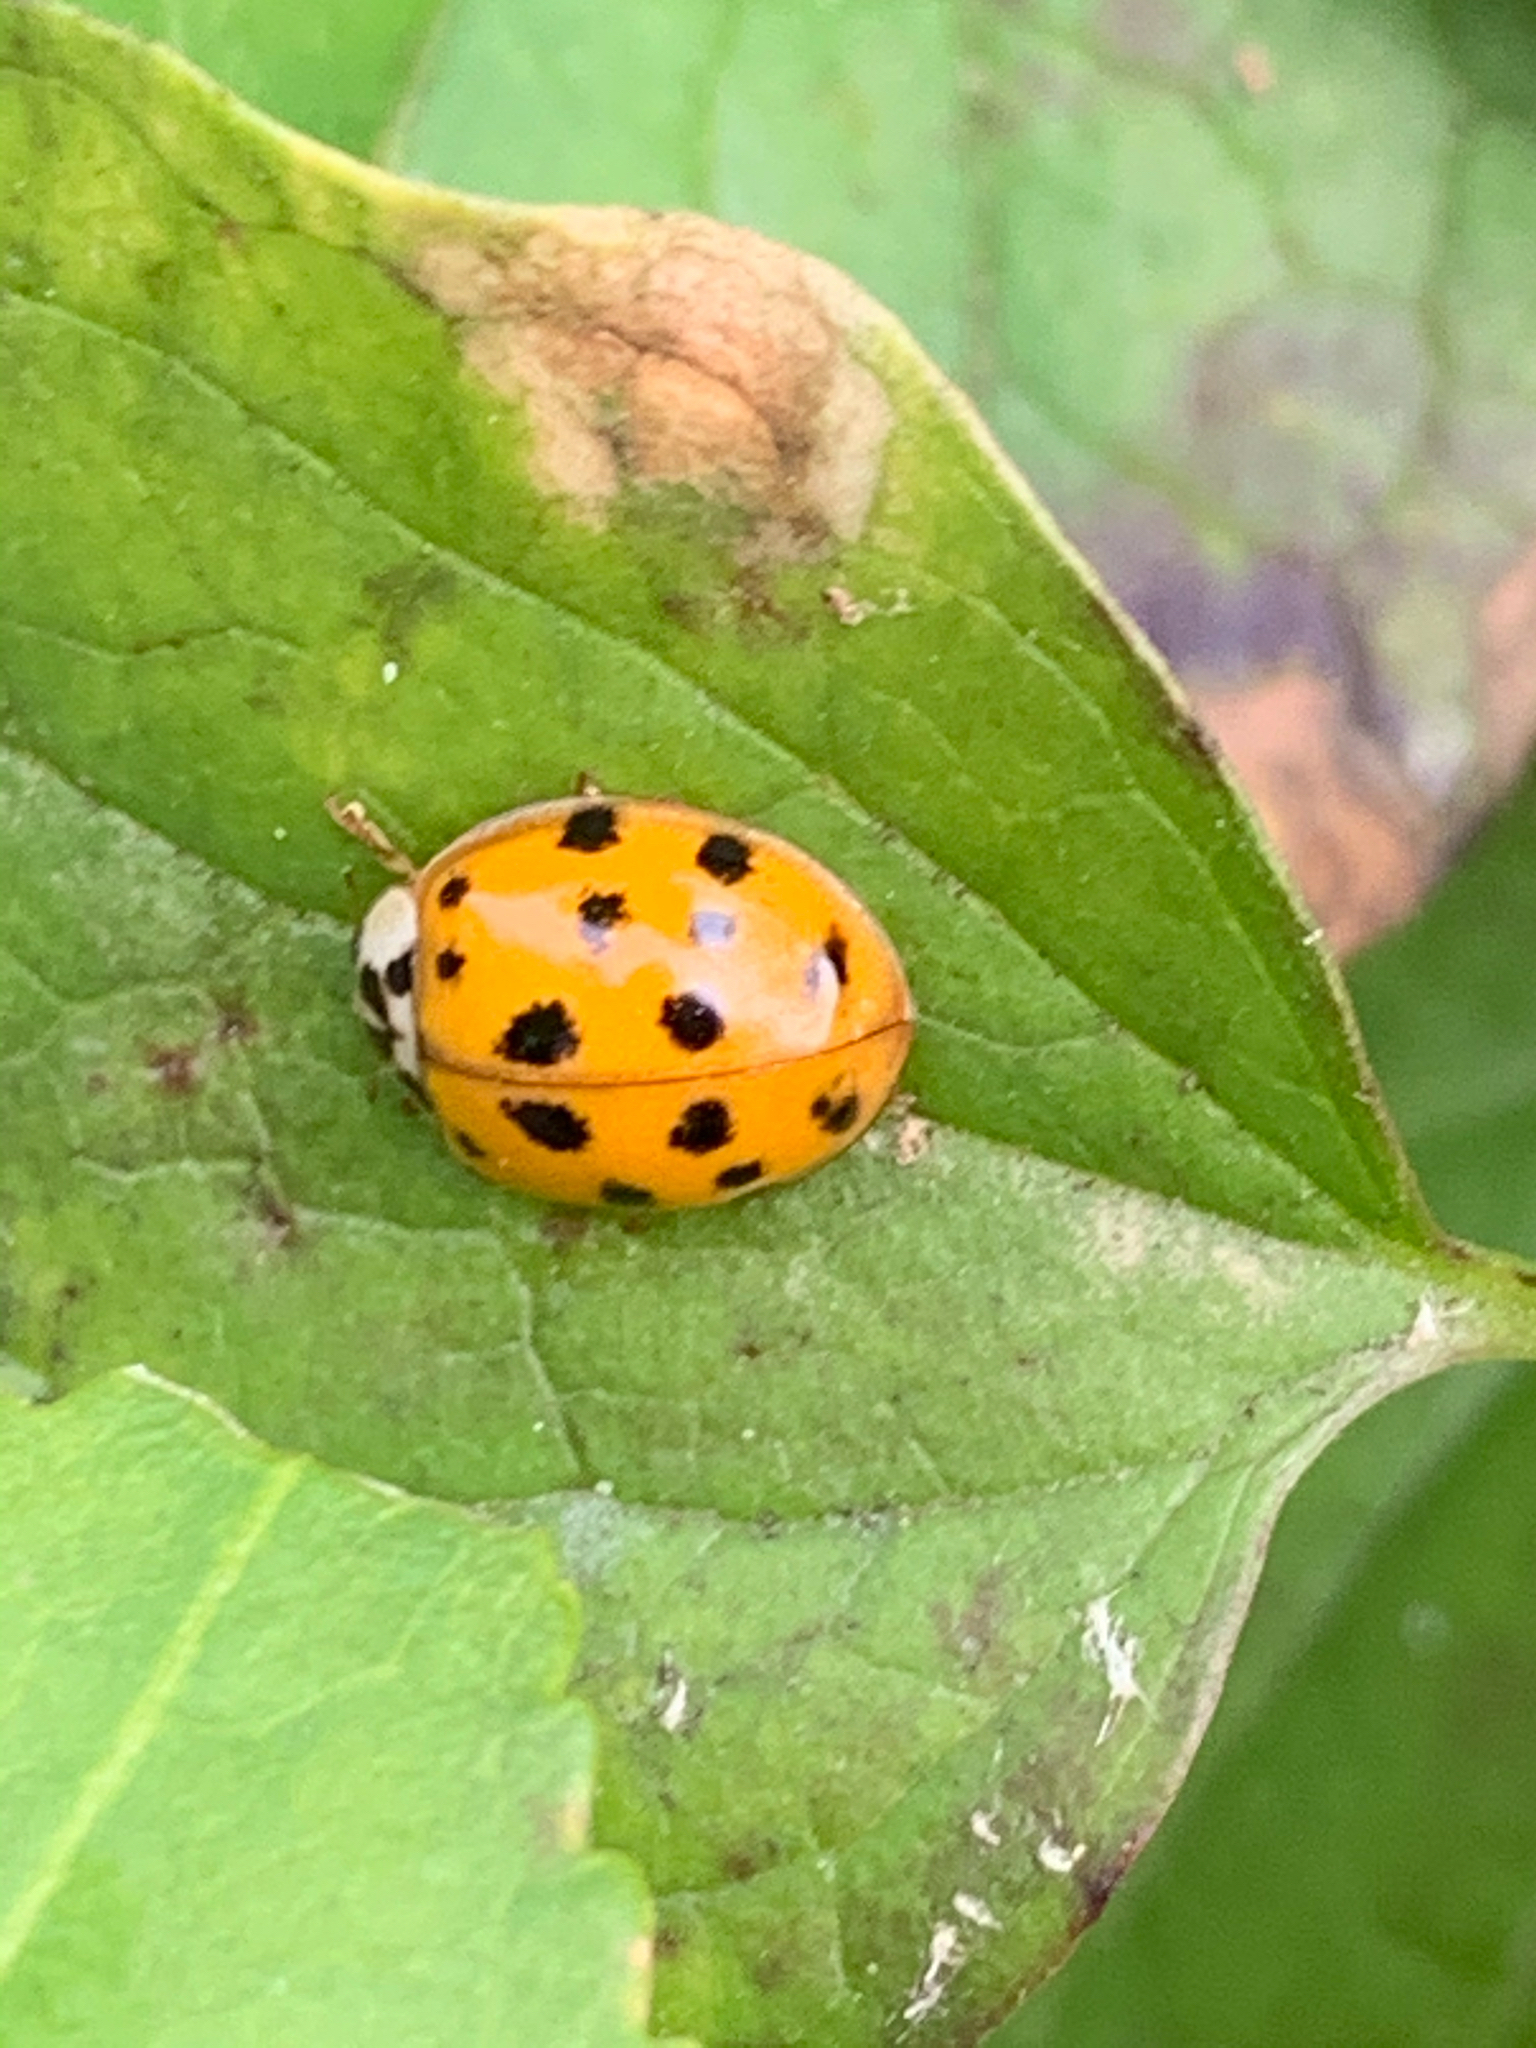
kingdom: Animalia
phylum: Arthropoda
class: Insecta
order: Coleoptera
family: Coccinellidae
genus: Harmonia
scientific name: Harmonia axyridis
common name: Harlequin ladybird
